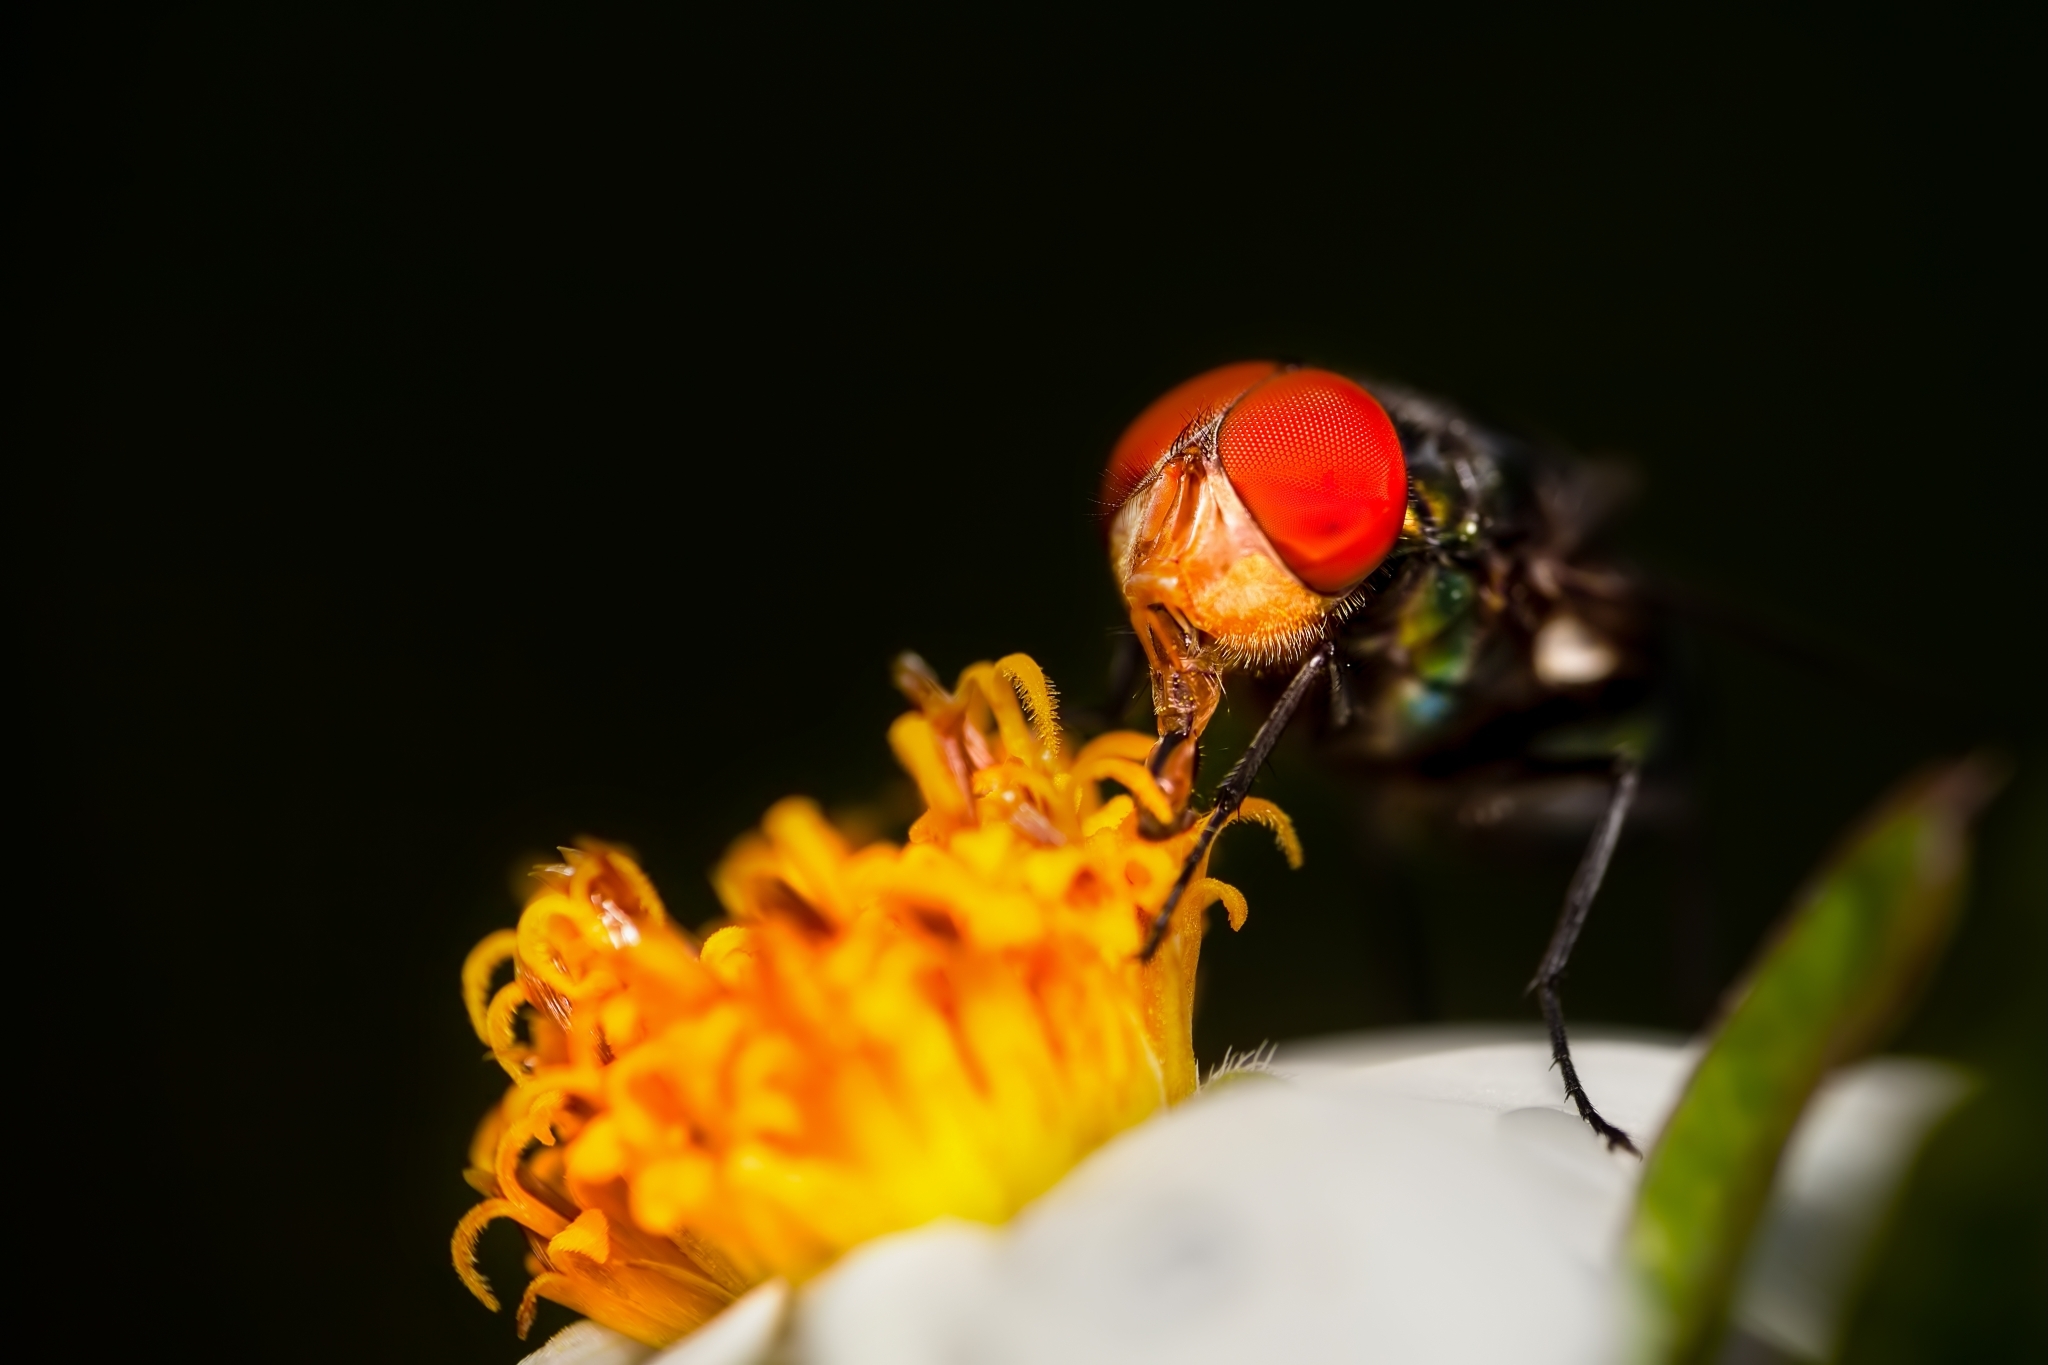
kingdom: Animalia
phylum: Arthropoda
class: Insecta
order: Diptera
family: Calliphoridae
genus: Chrysomya
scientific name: Chrysomya megacephala
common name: Blow fly
